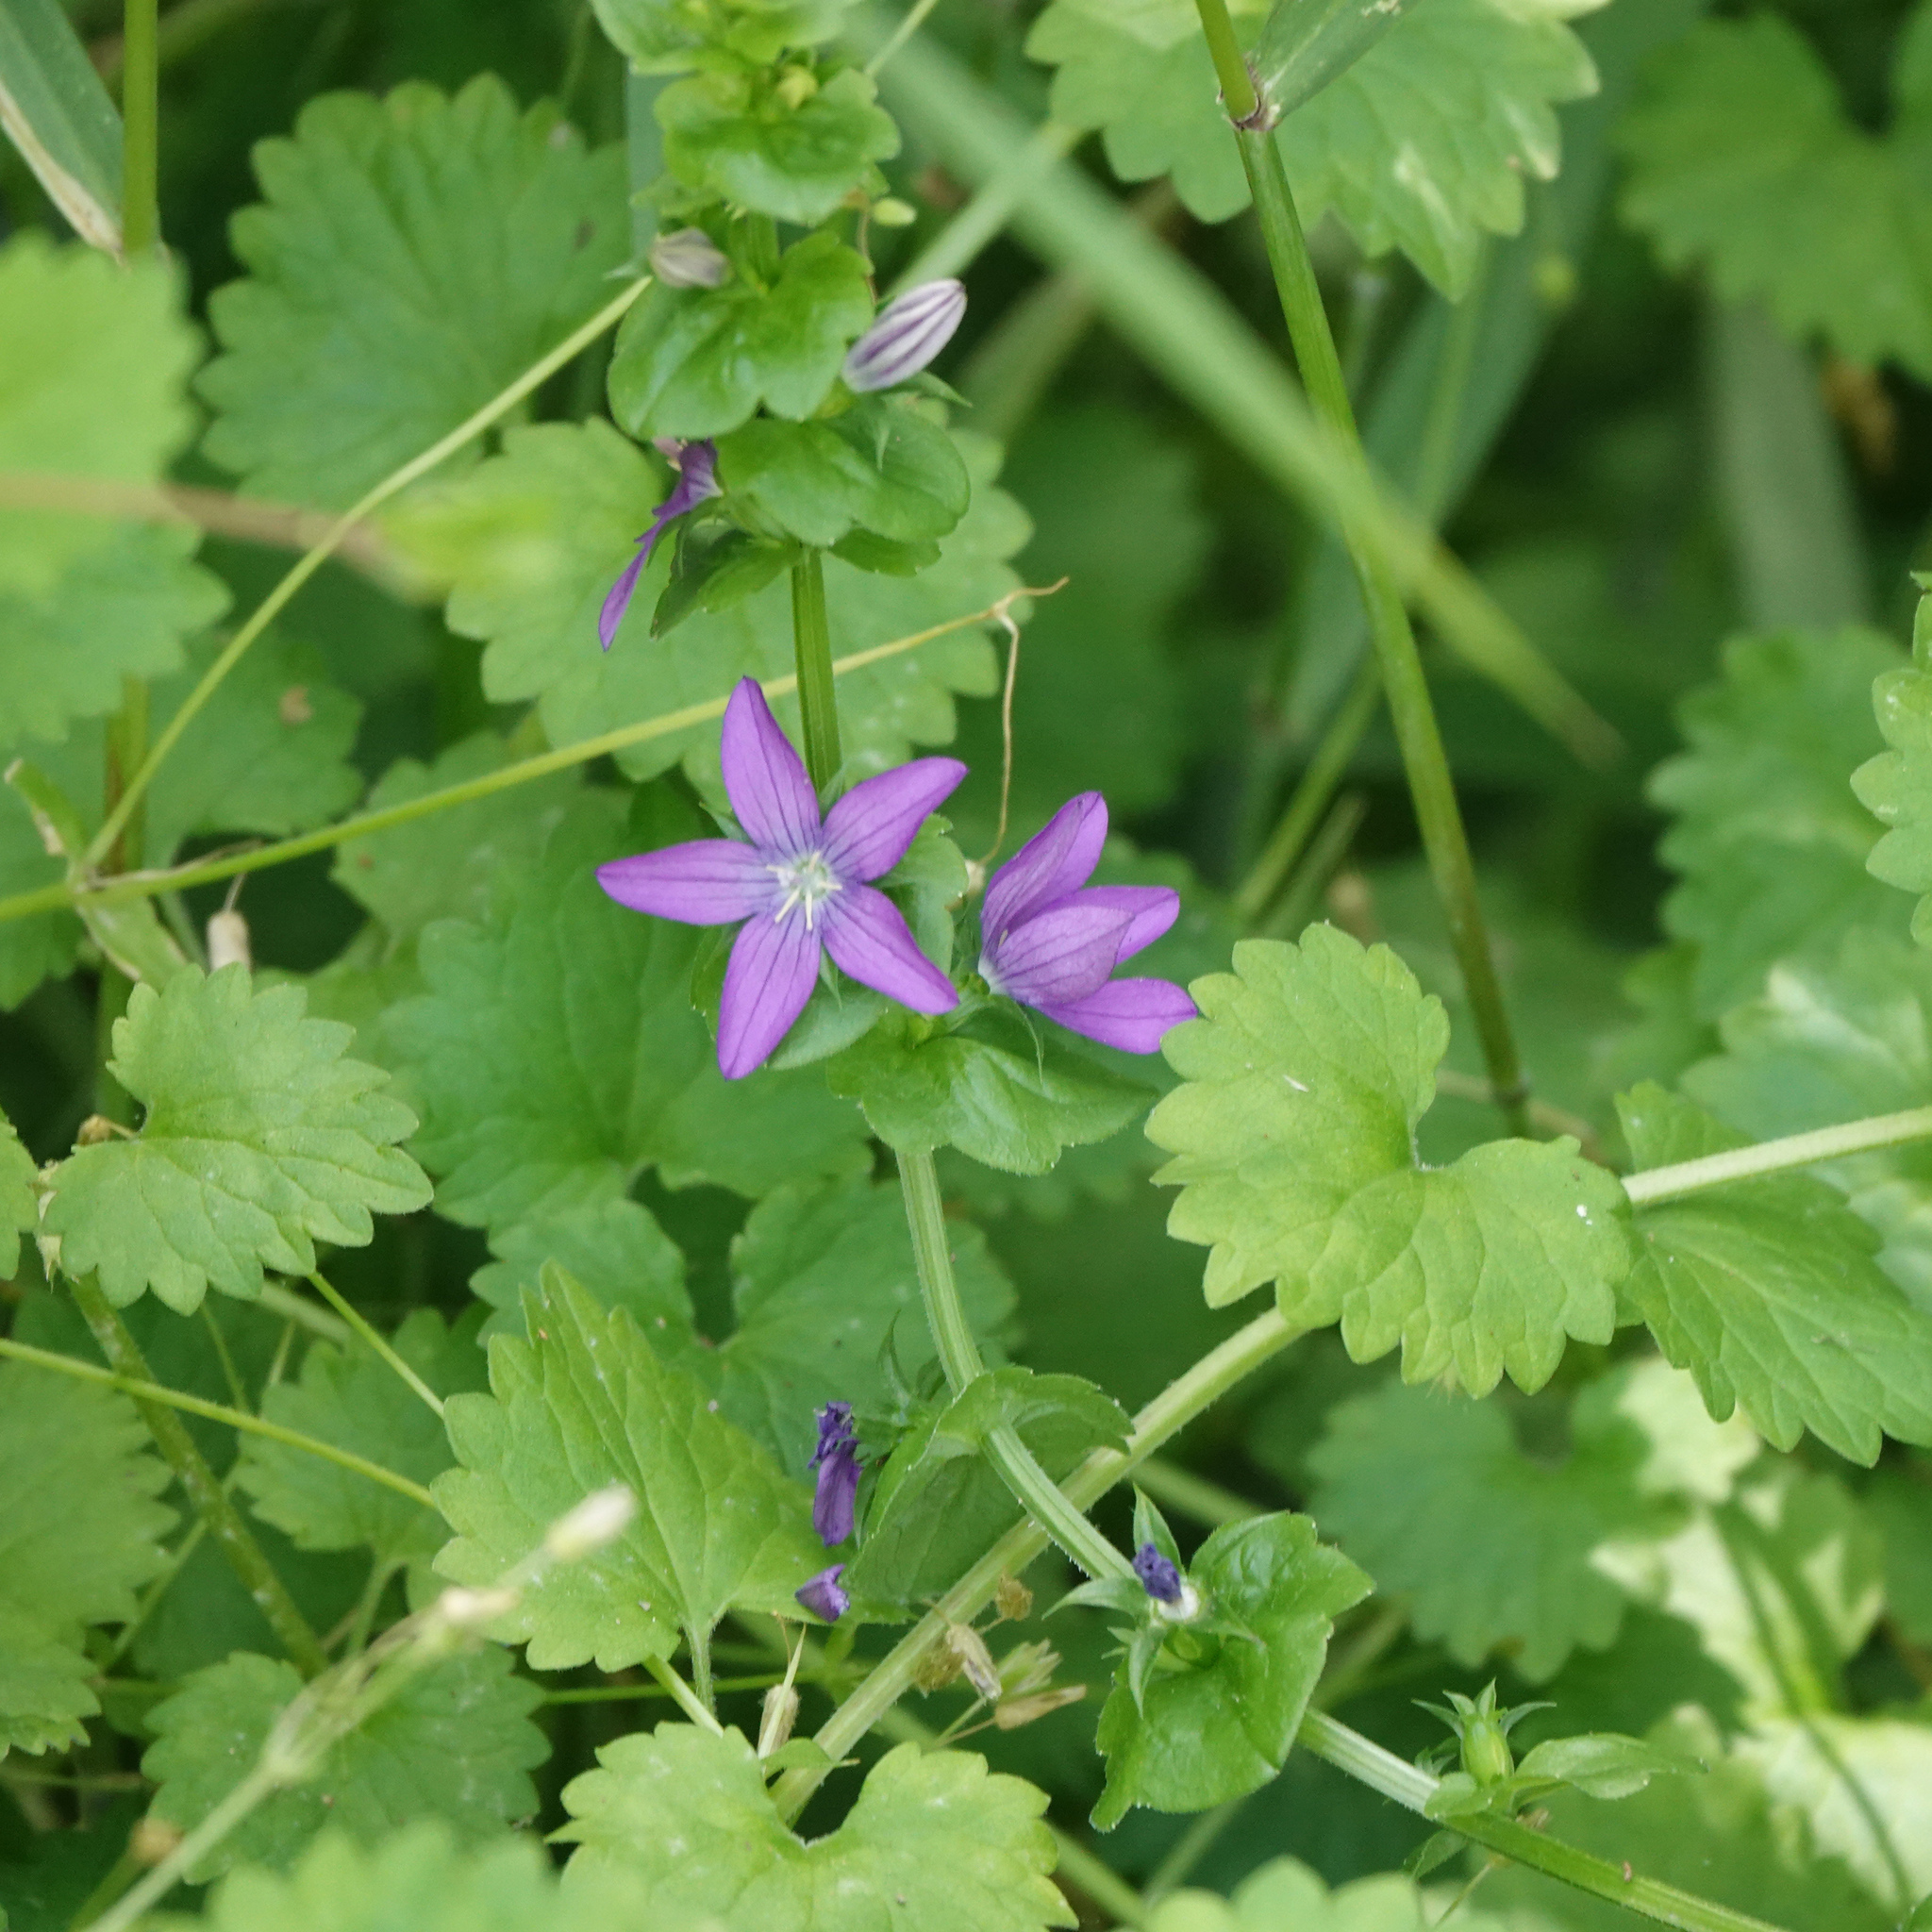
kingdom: Plantae
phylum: Tracheophyta
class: Magnoliopsida
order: Asterales
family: Campanulaceae
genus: Triodanis
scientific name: Triodanis perfoliata
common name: Clasping venus' looking-glass
